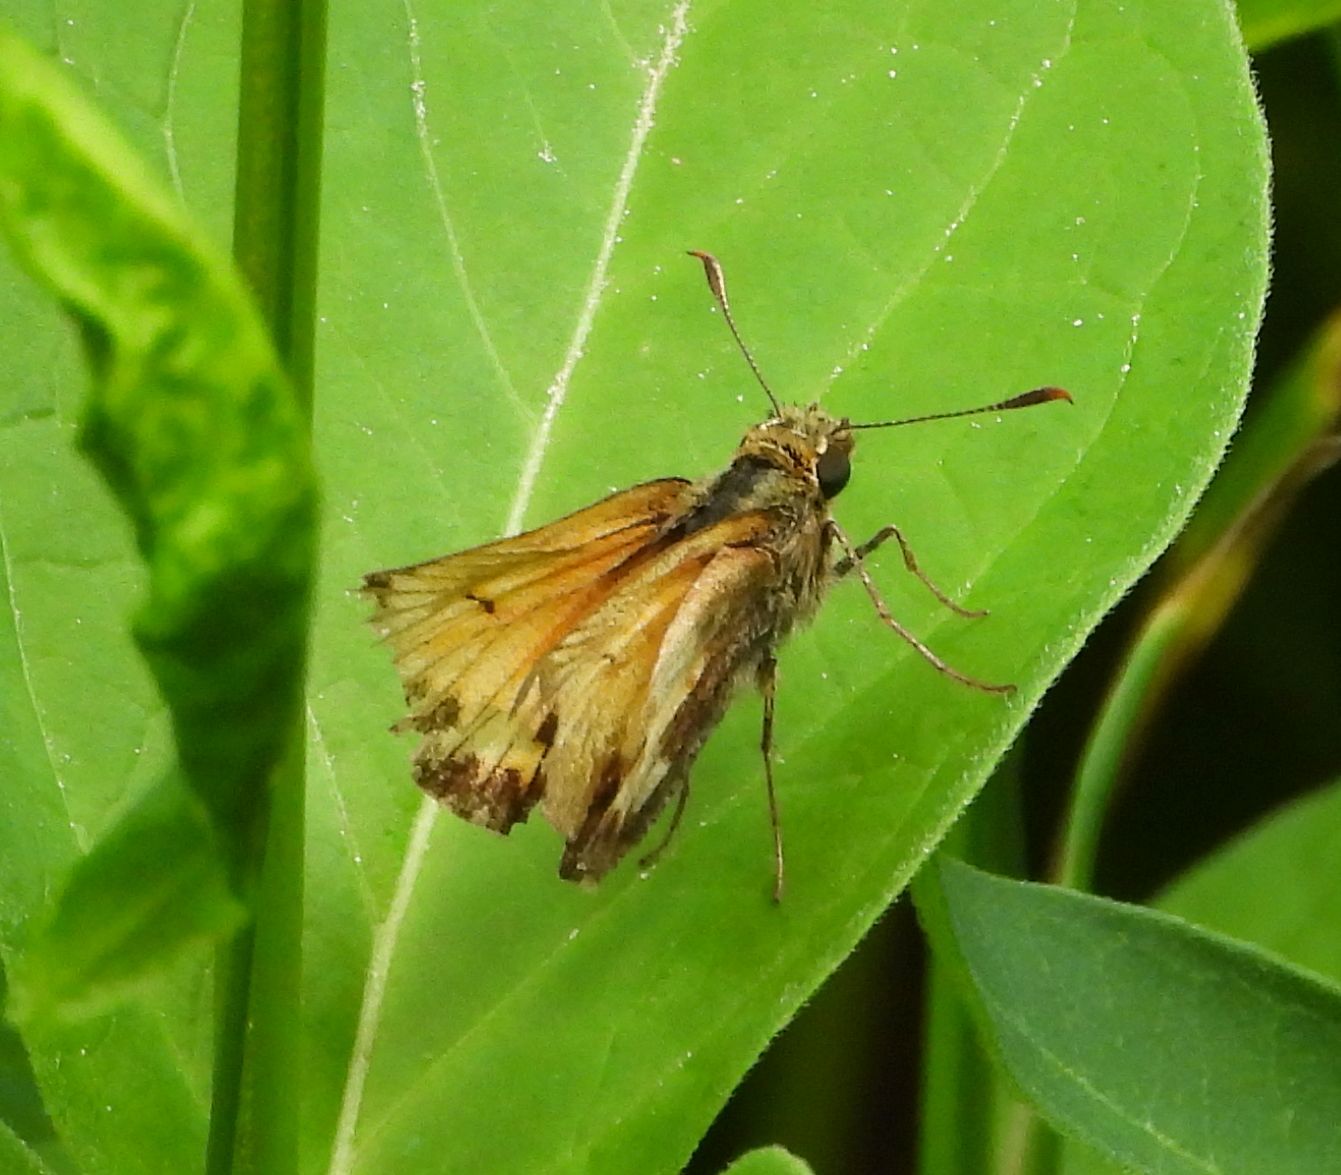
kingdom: Animalia
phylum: Arthropoda
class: Insecta
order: Lepidoptera
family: Hesperiidae
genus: Lon
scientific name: Lon hobomok
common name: Hobomok skipper
